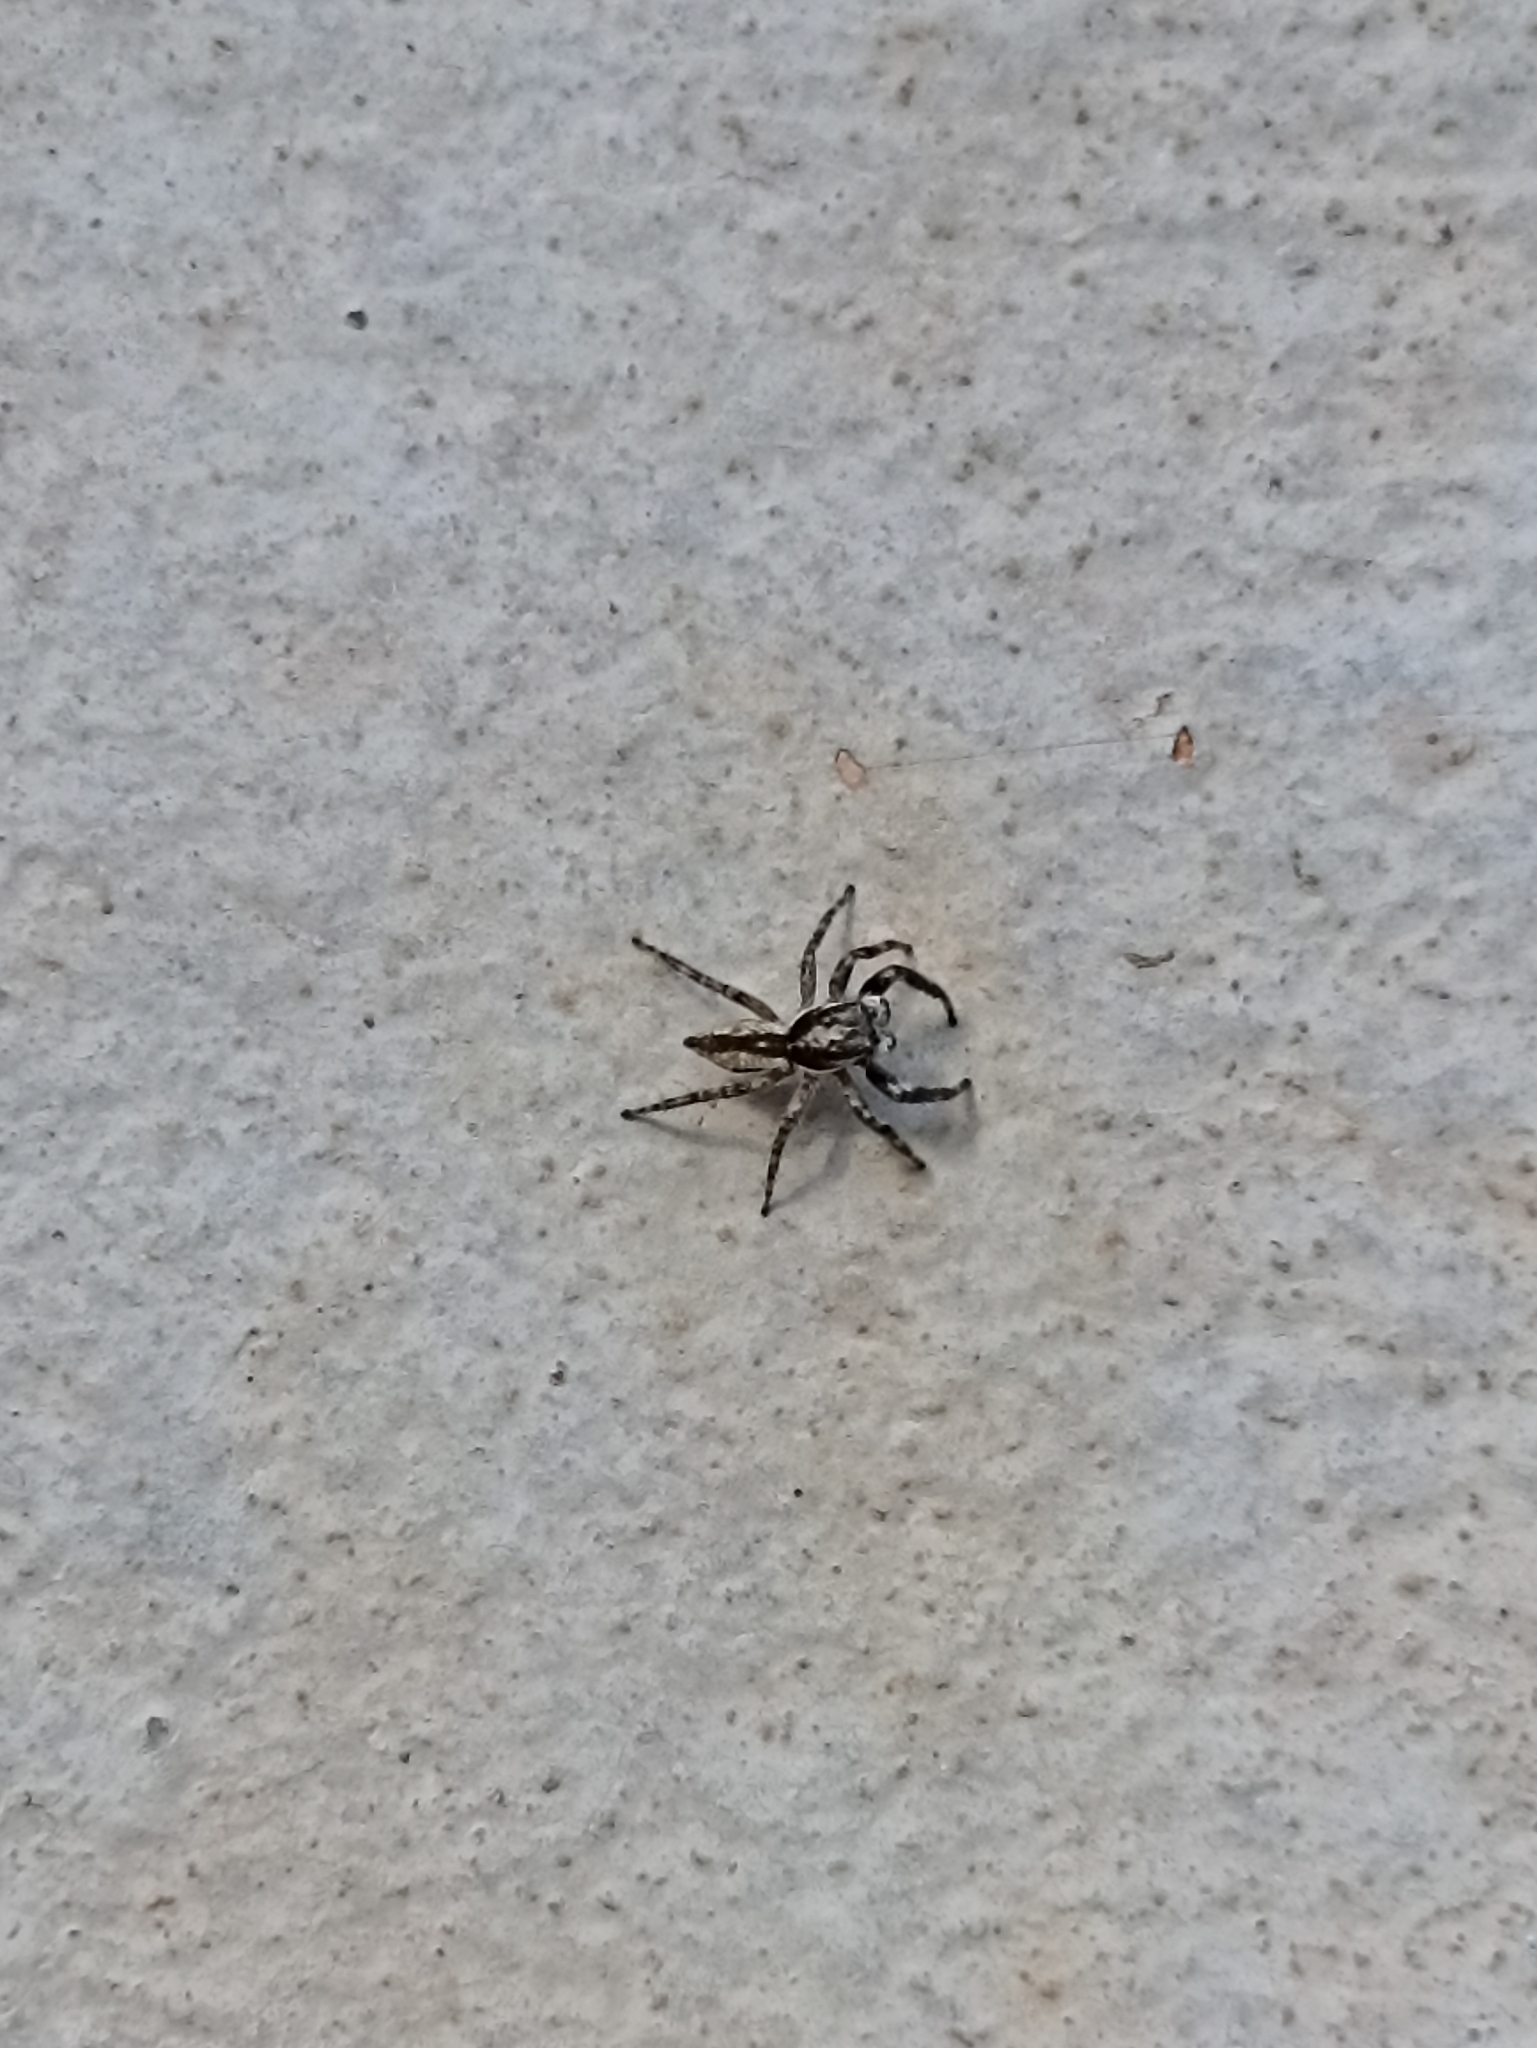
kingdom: Animalia
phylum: Arthropoda
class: Arachnida
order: Araneae
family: Salticidae
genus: Menemerus
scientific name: Menemerus bivittatus
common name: Gray wall jumper
